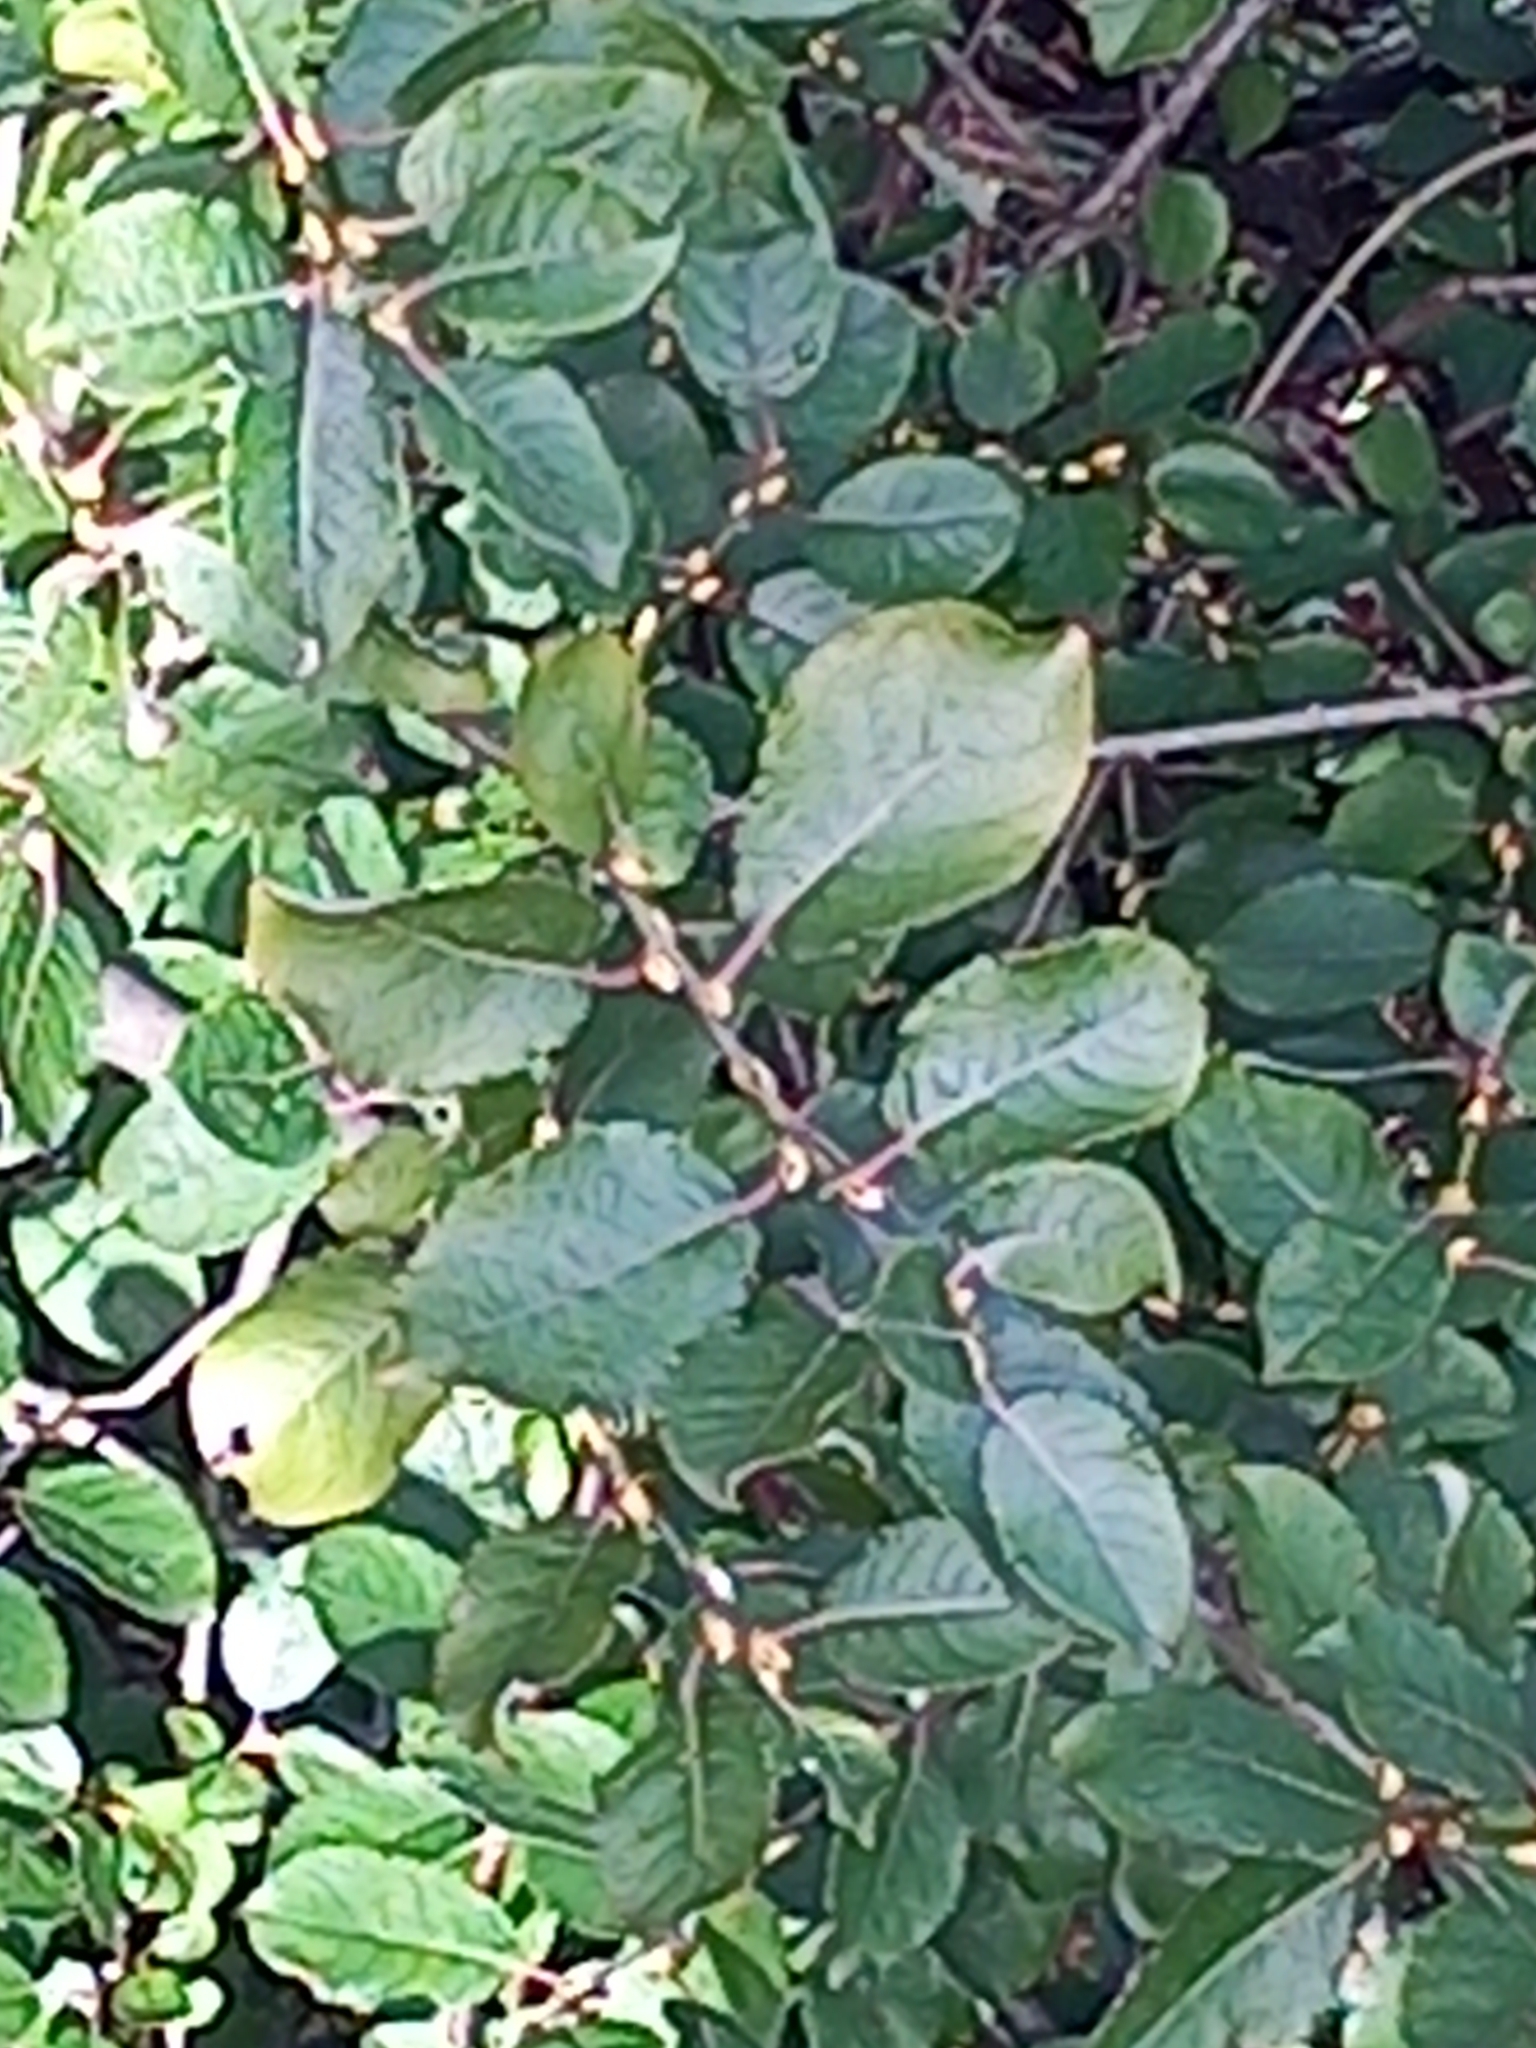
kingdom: Plantae
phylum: Tracheophyta
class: Magnoliopsida
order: Malpighiales
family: Salicaceae
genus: Salix
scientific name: Salix caprea
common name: Goat willow
